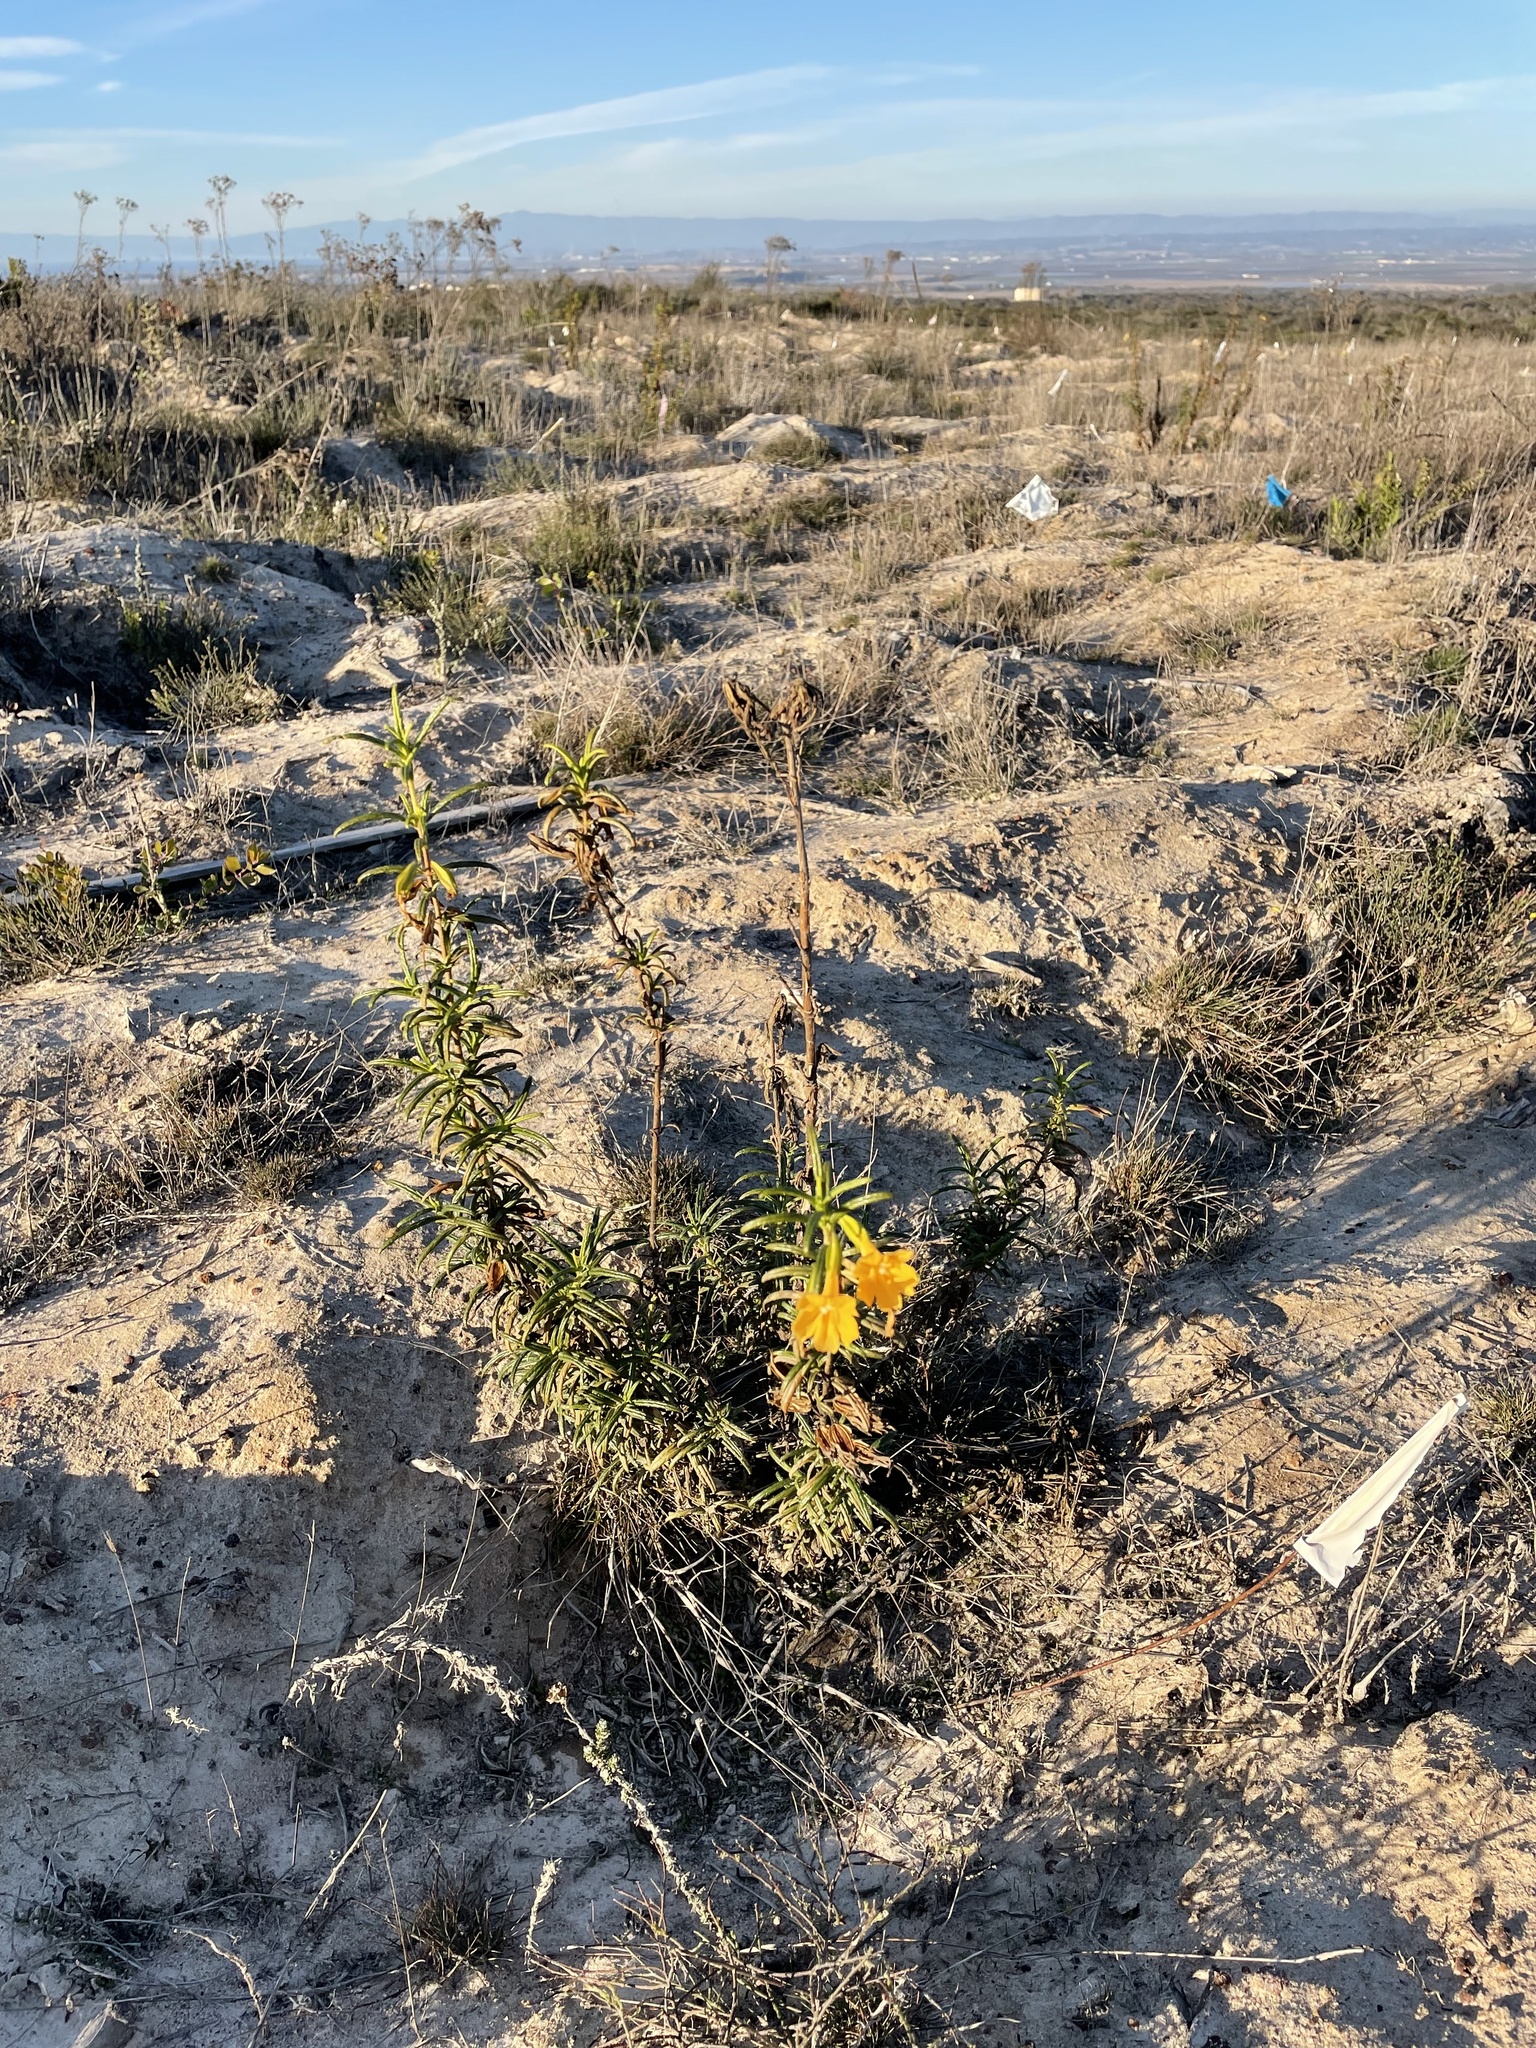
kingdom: Plantae
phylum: Tracheophyta
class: Magnoliopsida
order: Lamiales
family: Phrymaceae
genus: Diplacus
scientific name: Diplacus aurantiacus
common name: Bush monkey-flower
